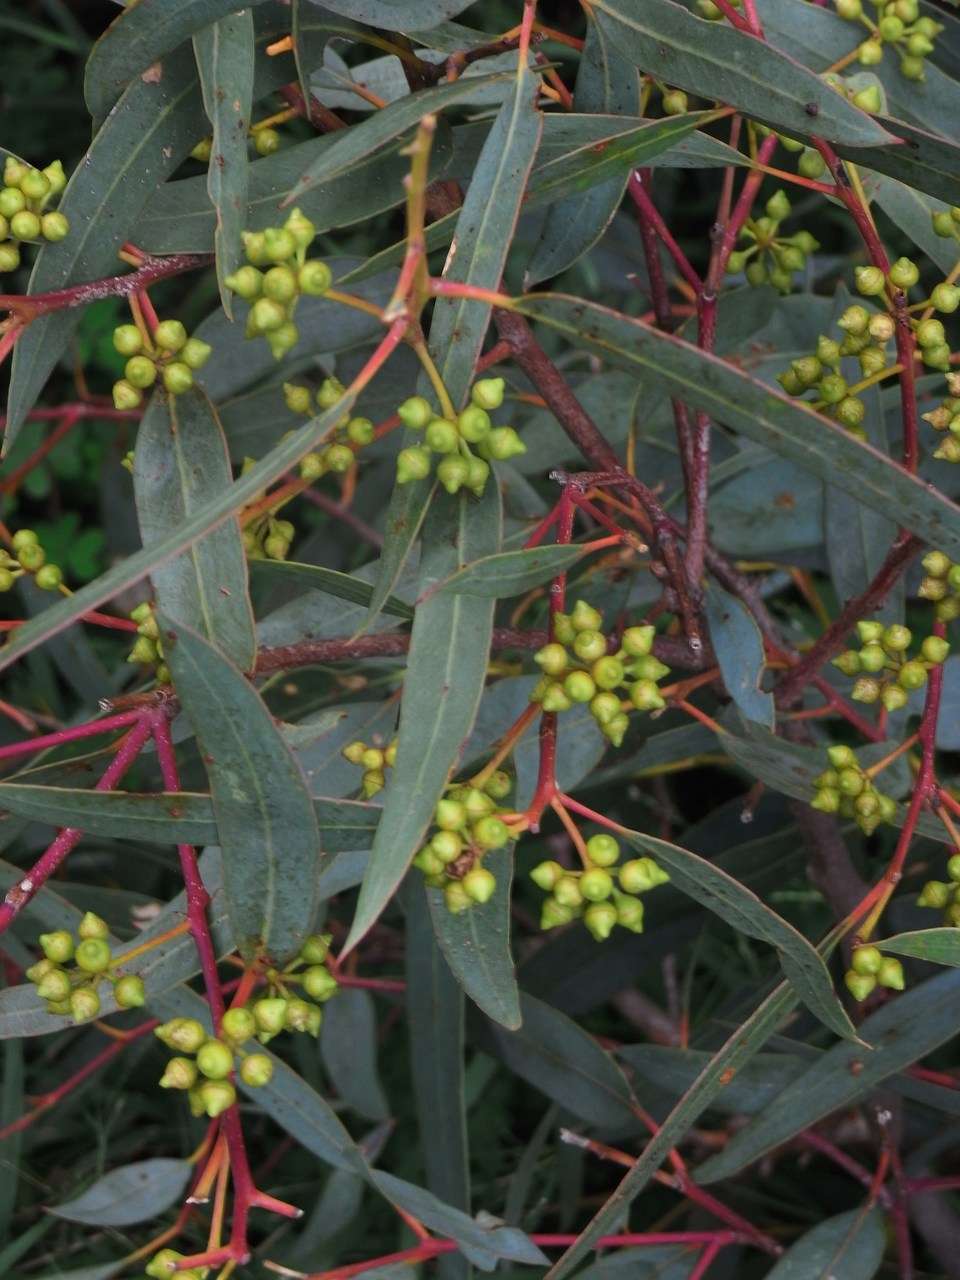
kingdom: Plantae
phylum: Tracheophyta
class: Magnoliopsida
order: Myrtales
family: Myrtaceae
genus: Eucalyptus
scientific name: Eucalyptus camaldulensis
